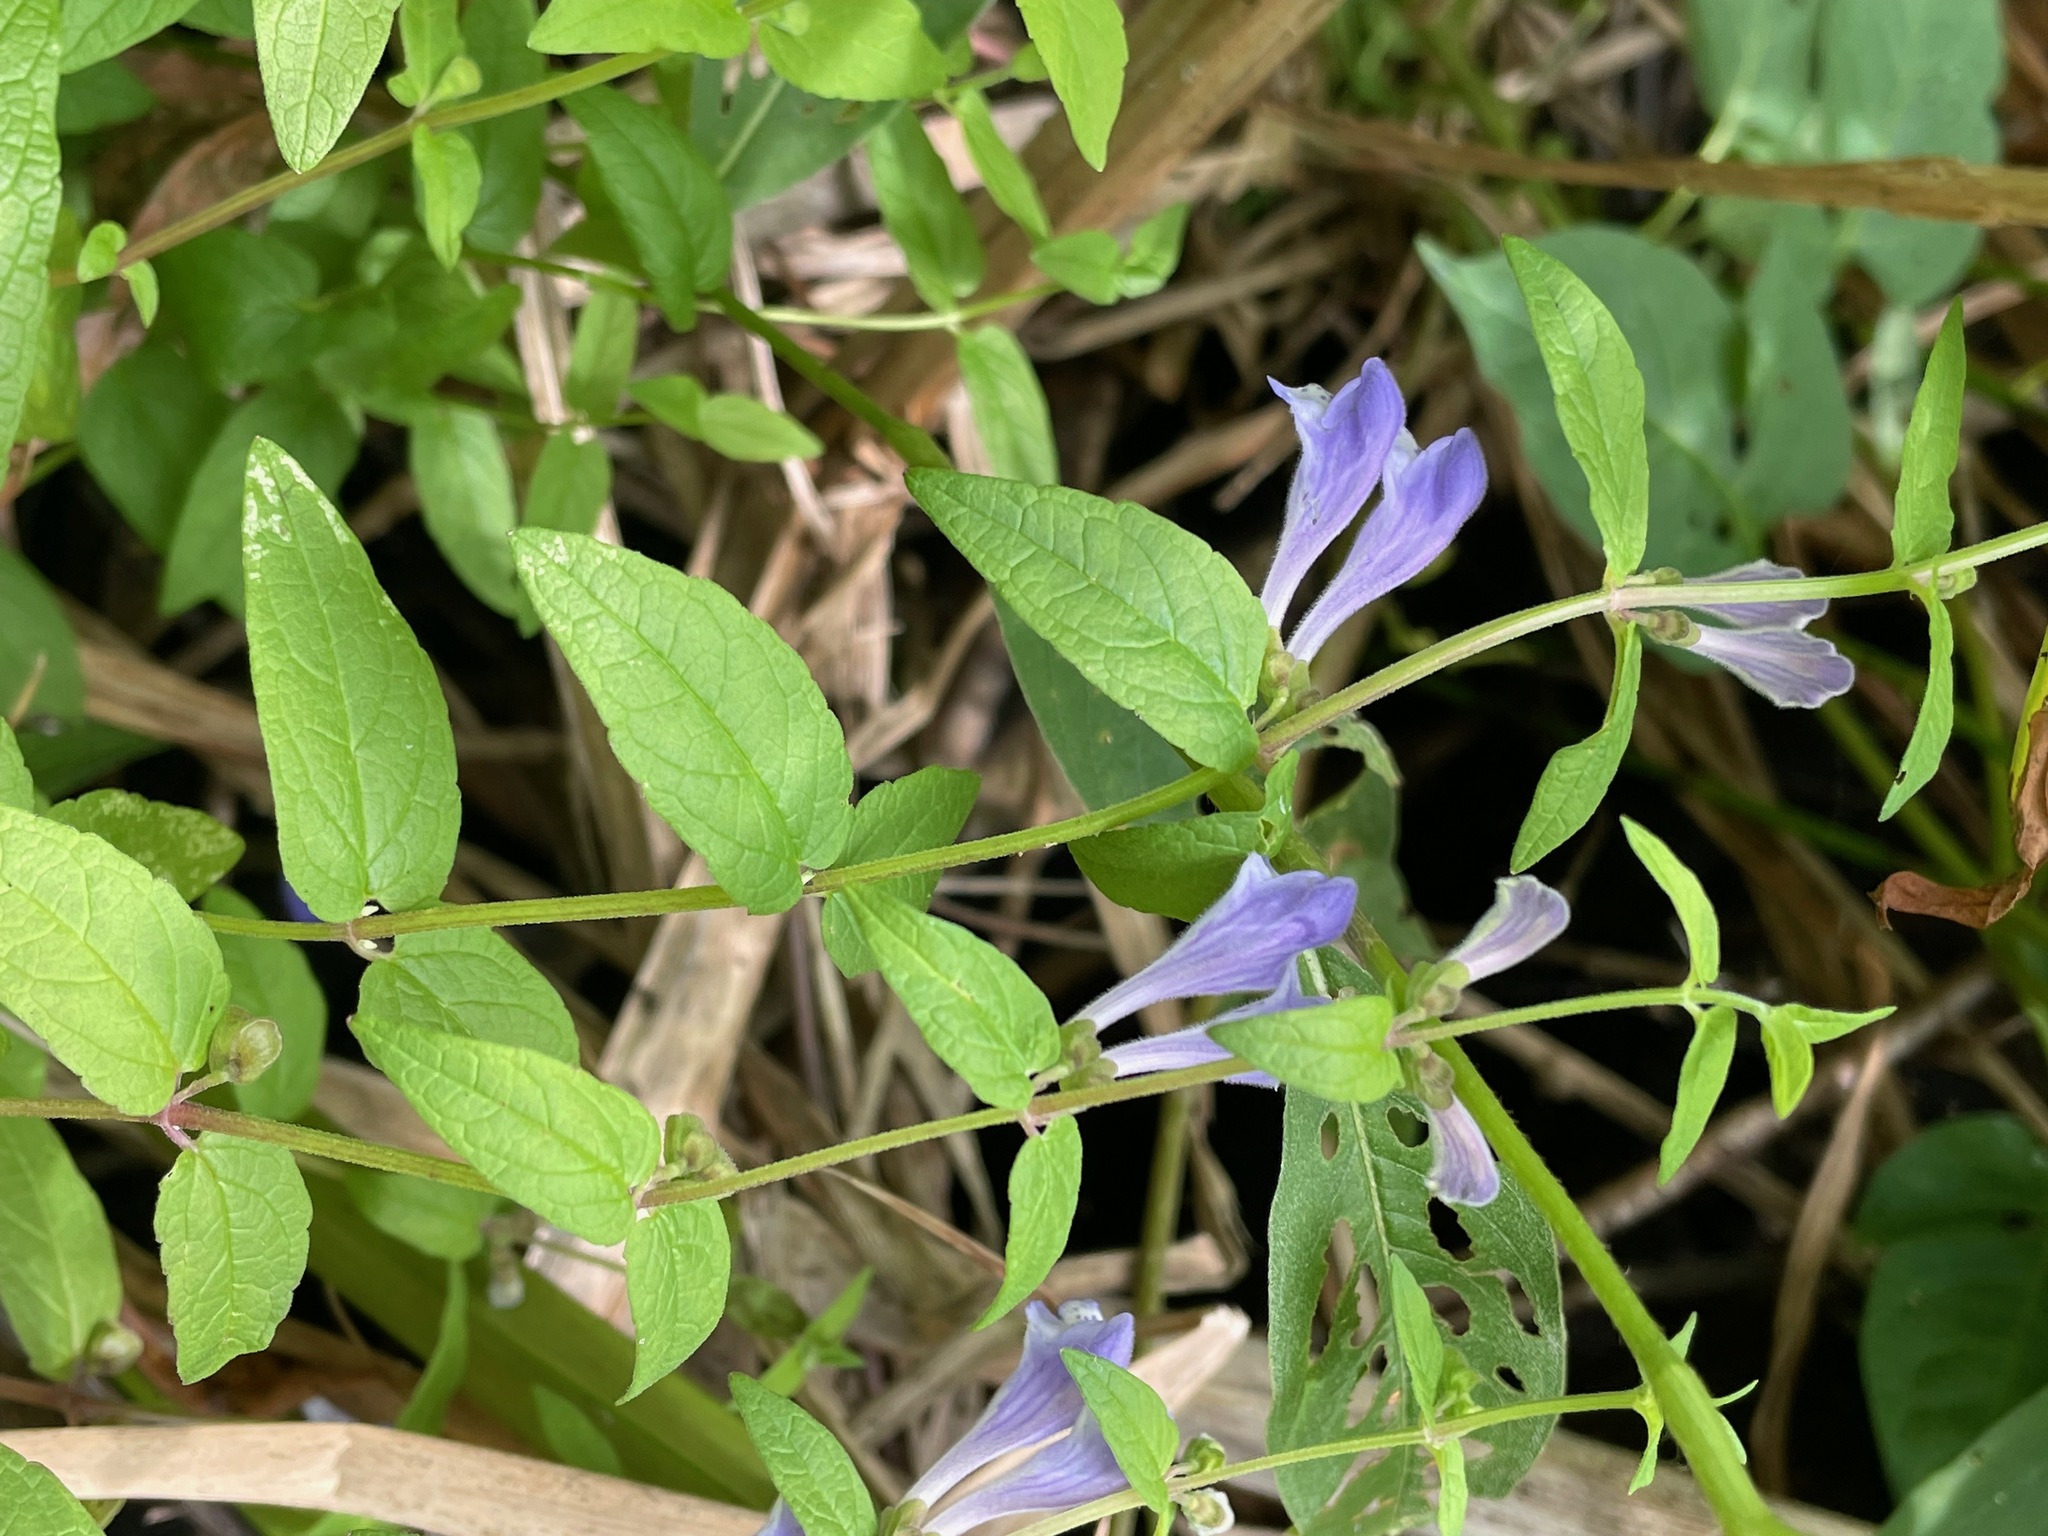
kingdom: Plantae
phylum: Tracheophyta
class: Magnoliopsida
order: Lamiales
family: Lamiaceae
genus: Scutellaria
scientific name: Scutellaria galericulata
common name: Skullcap
